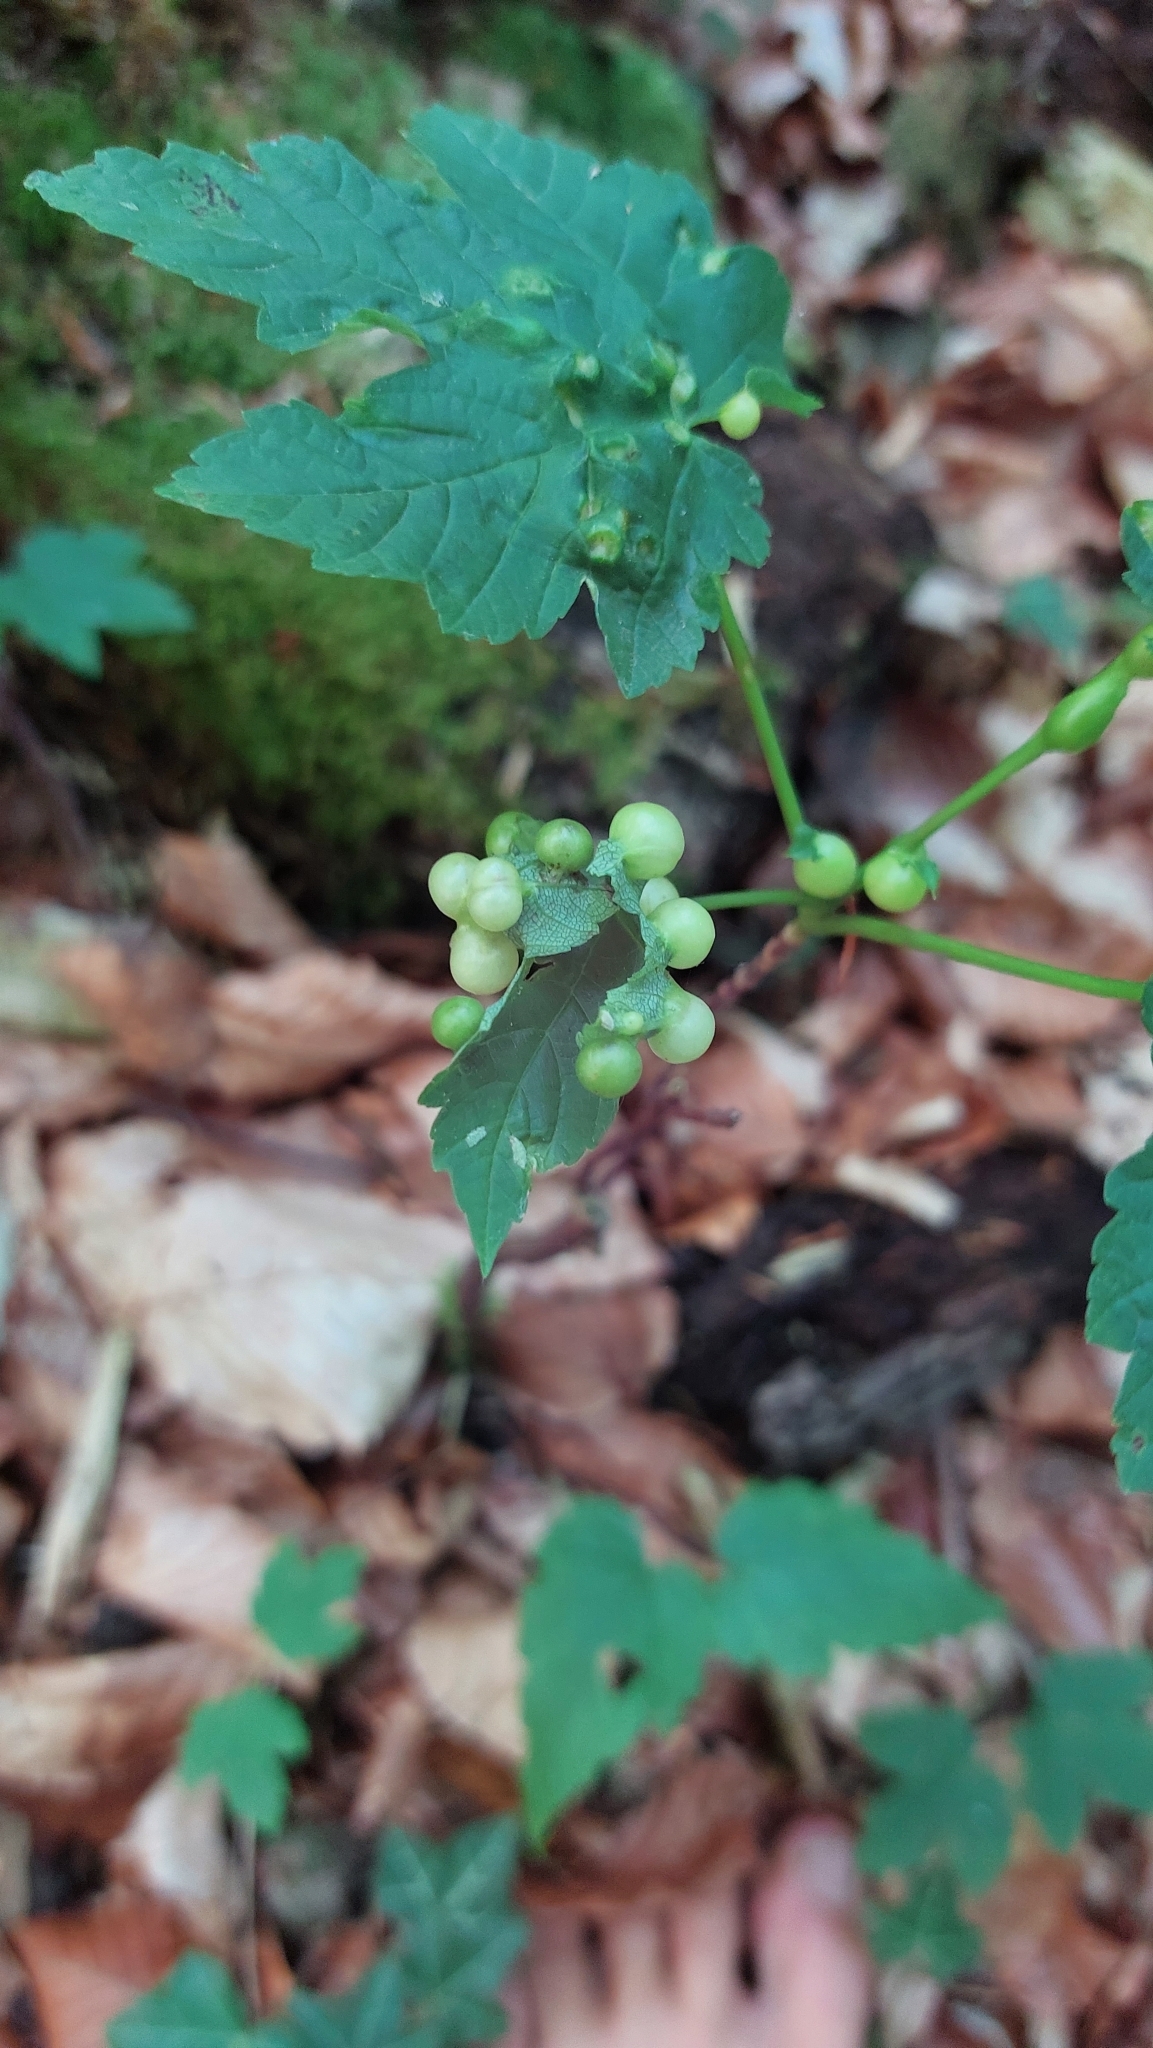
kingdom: Animalia
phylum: Arthropoda
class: Insecta
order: Hymenoptera
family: Cynipidae
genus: Pediaspis
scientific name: Pediaspis aceris
